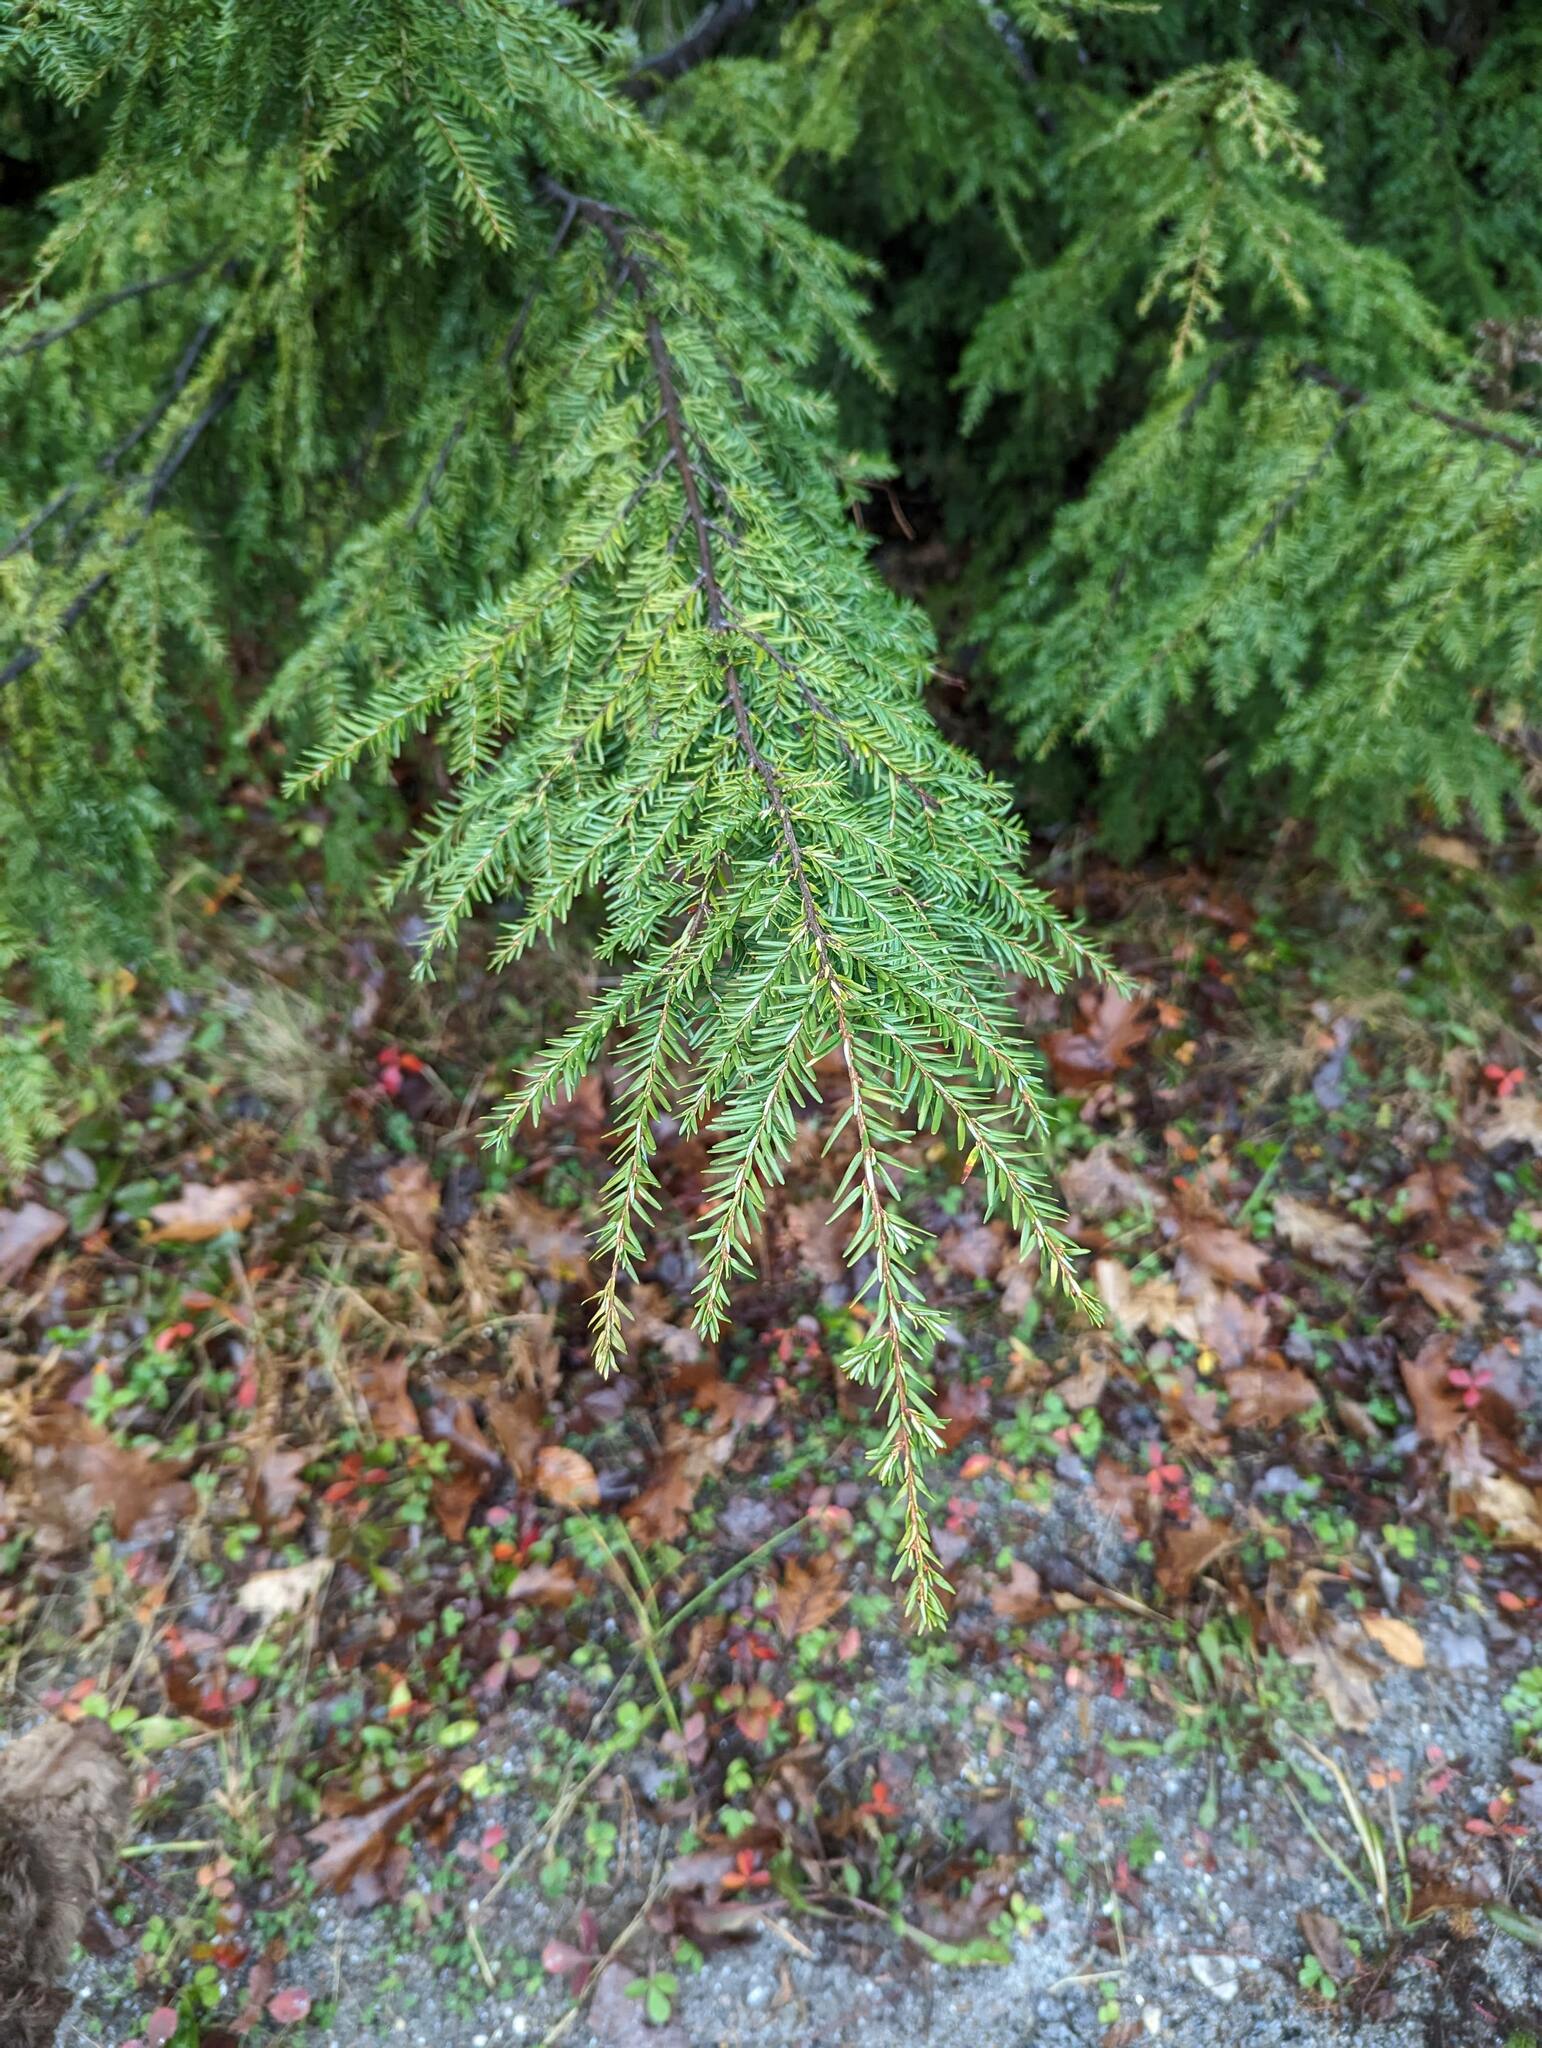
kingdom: Plantae
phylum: Tracheophyta
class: Pinopsida
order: Pinales
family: Pinaceae
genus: Tsuga
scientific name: Tsuga canadensis
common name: Eastern hemlock
